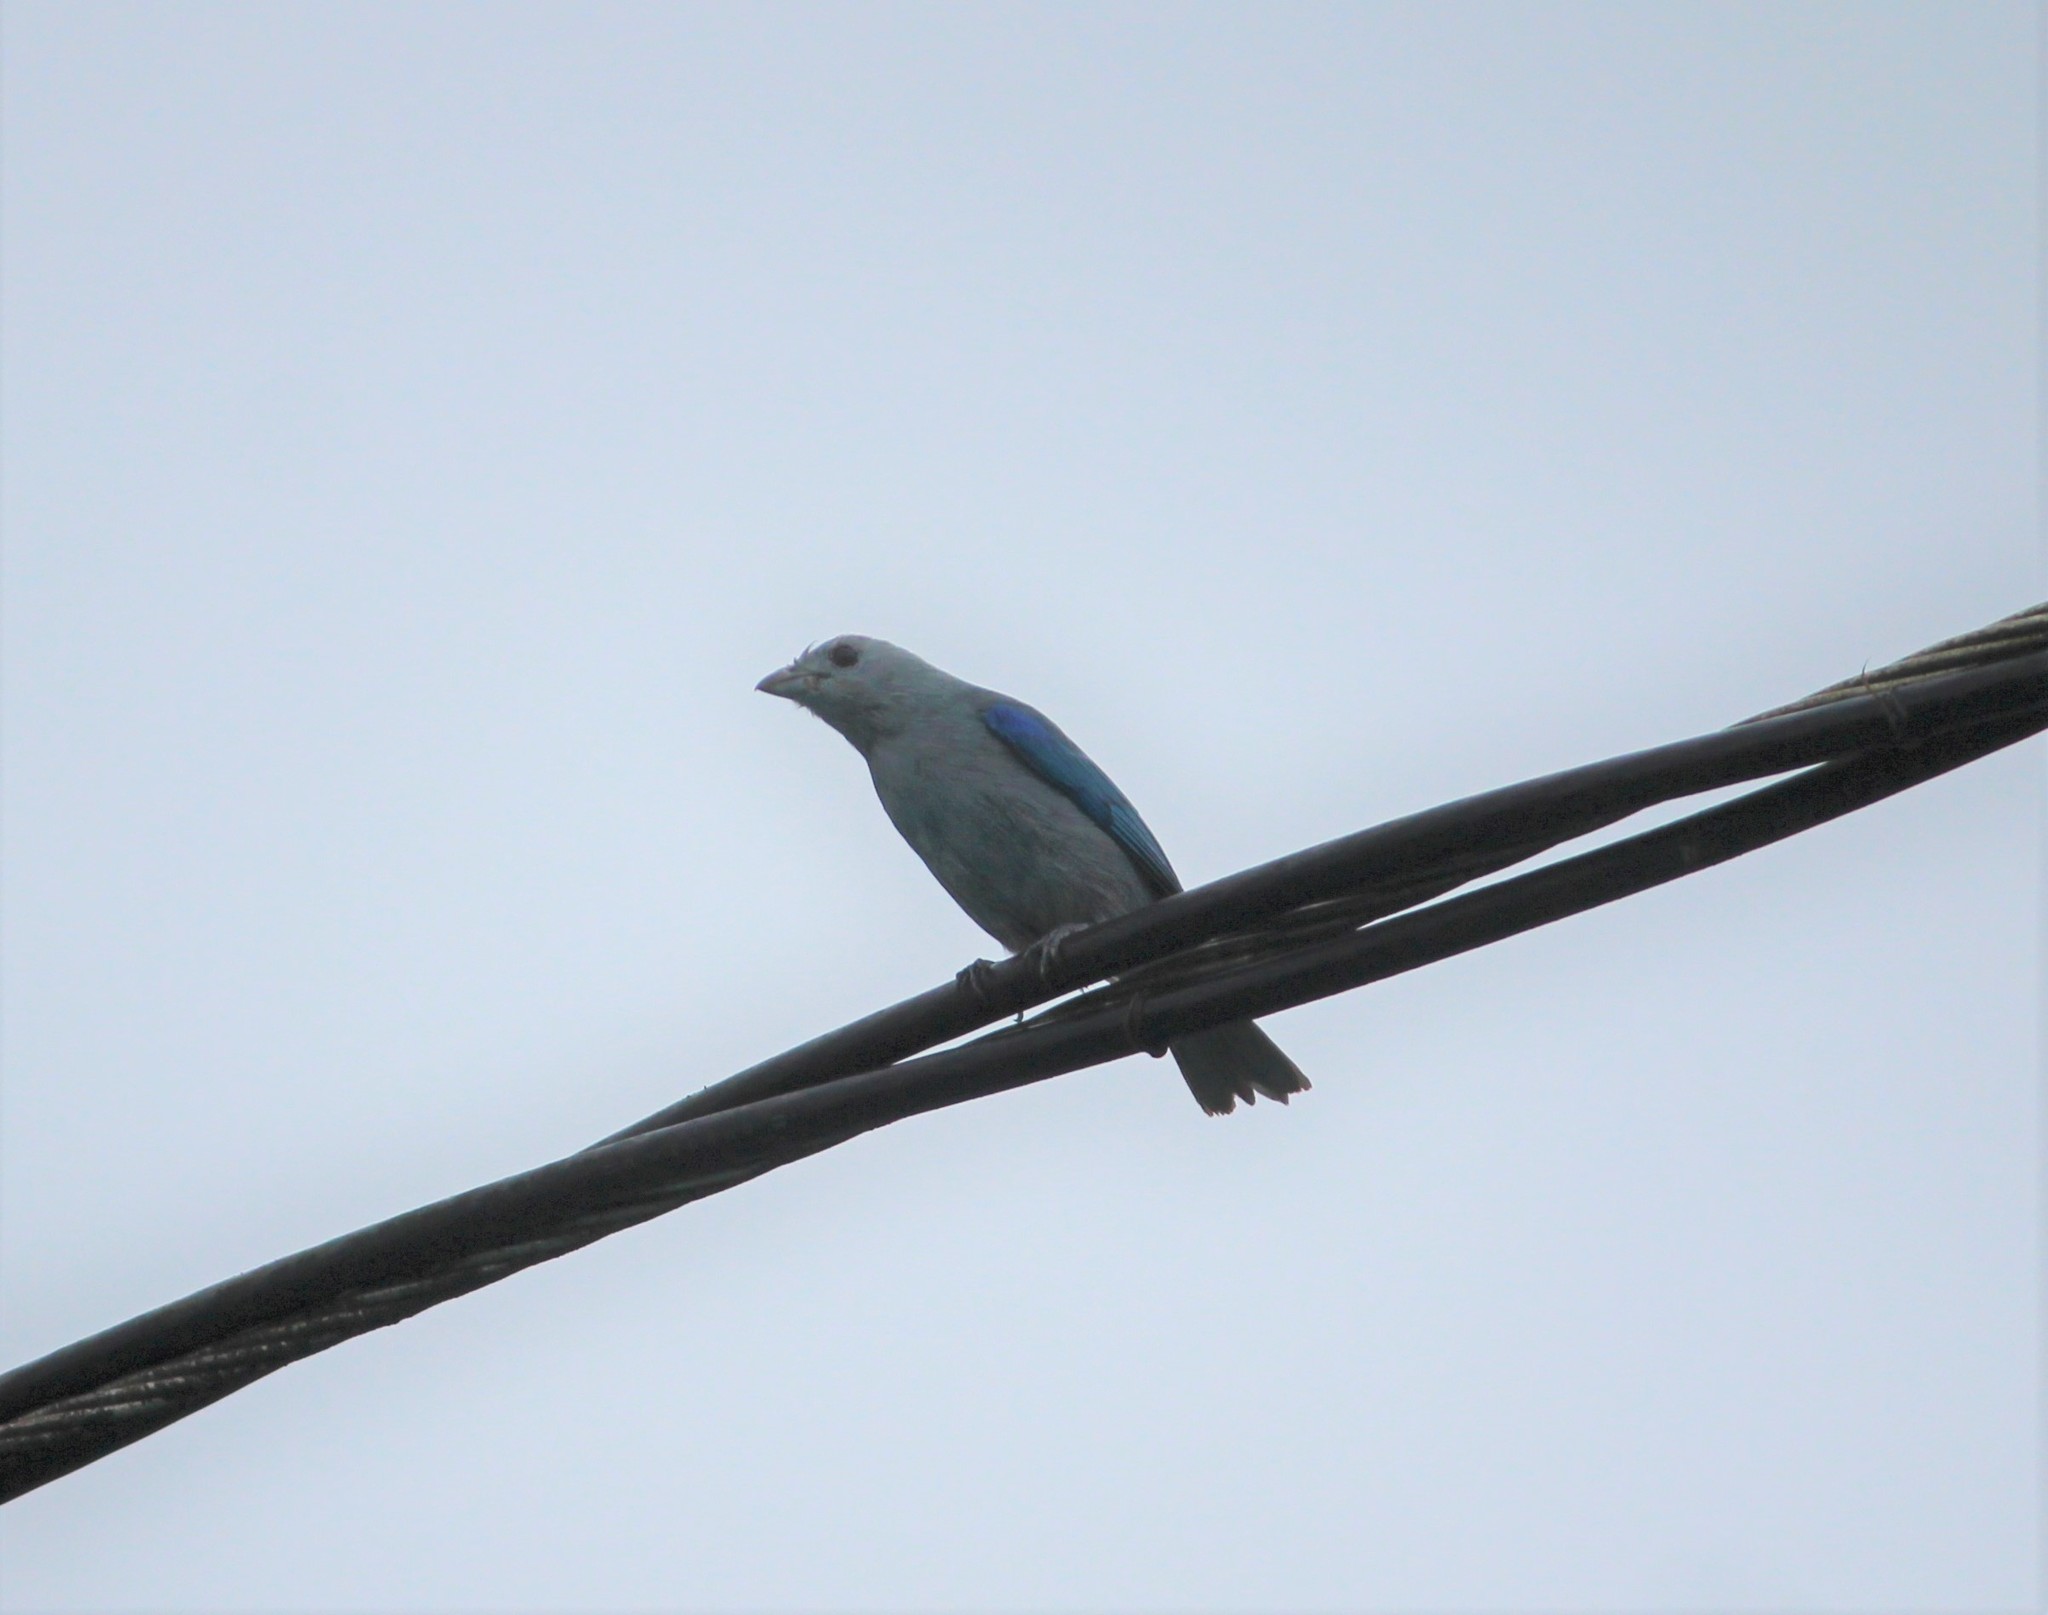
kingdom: Animalia
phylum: Chordata
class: Aves
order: Passeriformes
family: Thraupidae
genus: Thraupis
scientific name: Thraupis episcopus
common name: Blue-grey tanager
